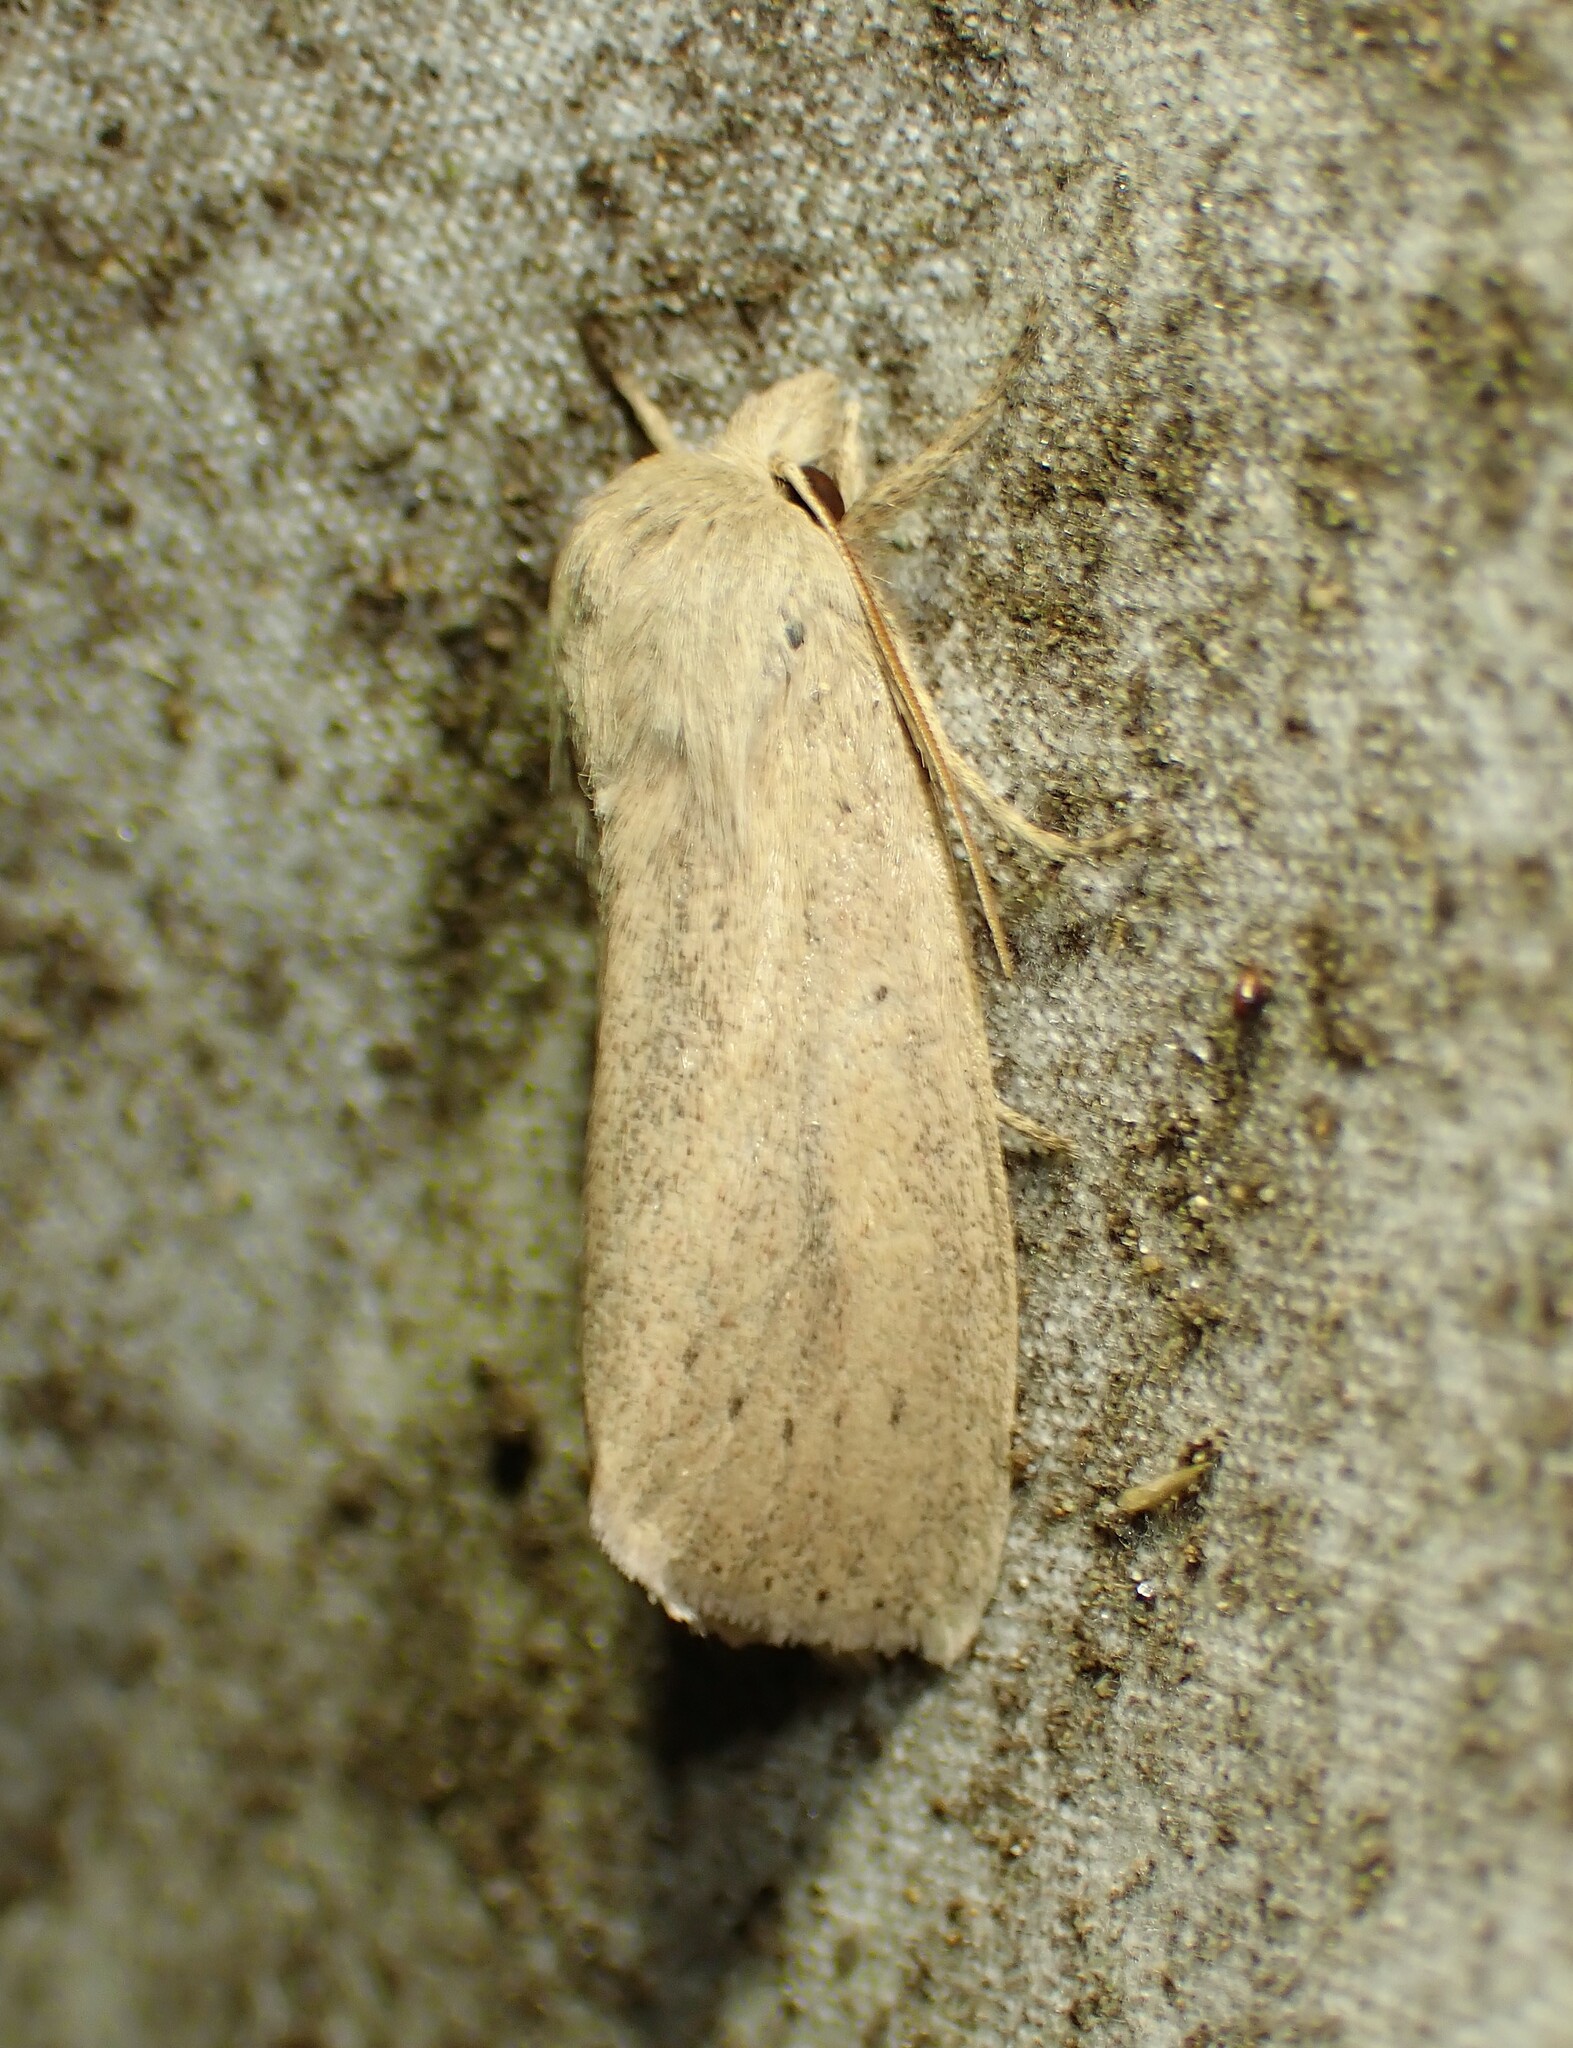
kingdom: Animalia
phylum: Arthropoda
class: Insecta
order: Lepidoptera
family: Noctuidae
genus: Globia
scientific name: Globia oblonga
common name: Oblong sedge borer moth
